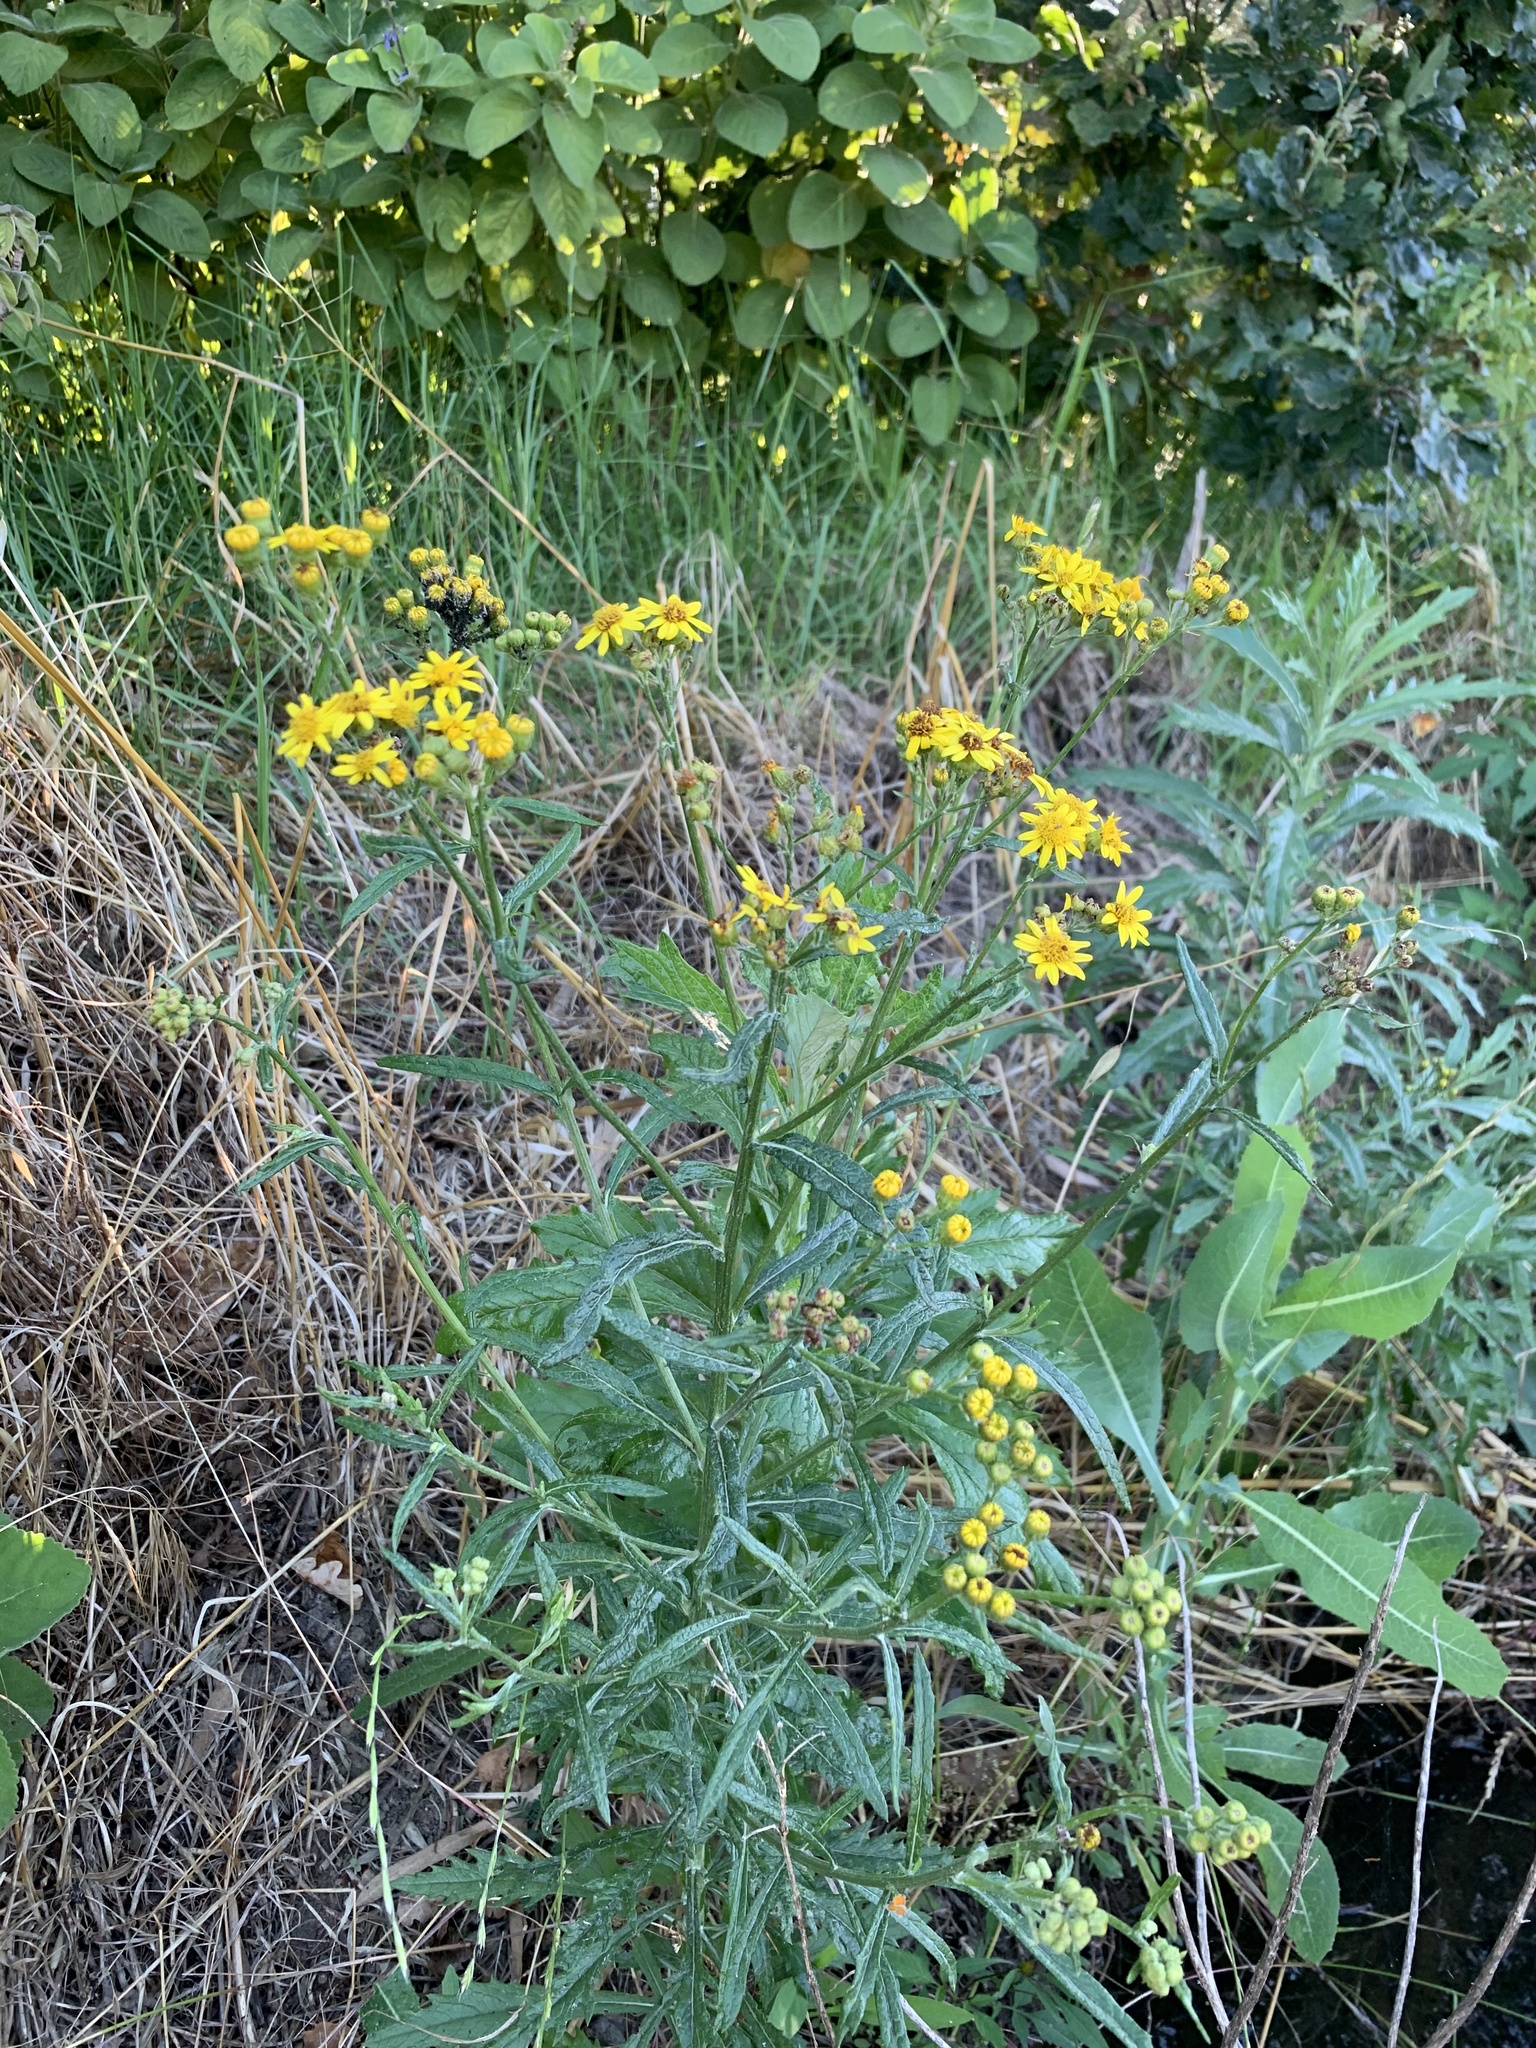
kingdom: Plantae
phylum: Tracheophyta
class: Magnoliopsida
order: Asterales
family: Asteraceae
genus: Senecio
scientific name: Senecio pterophorus
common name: Shoddy ragwort
